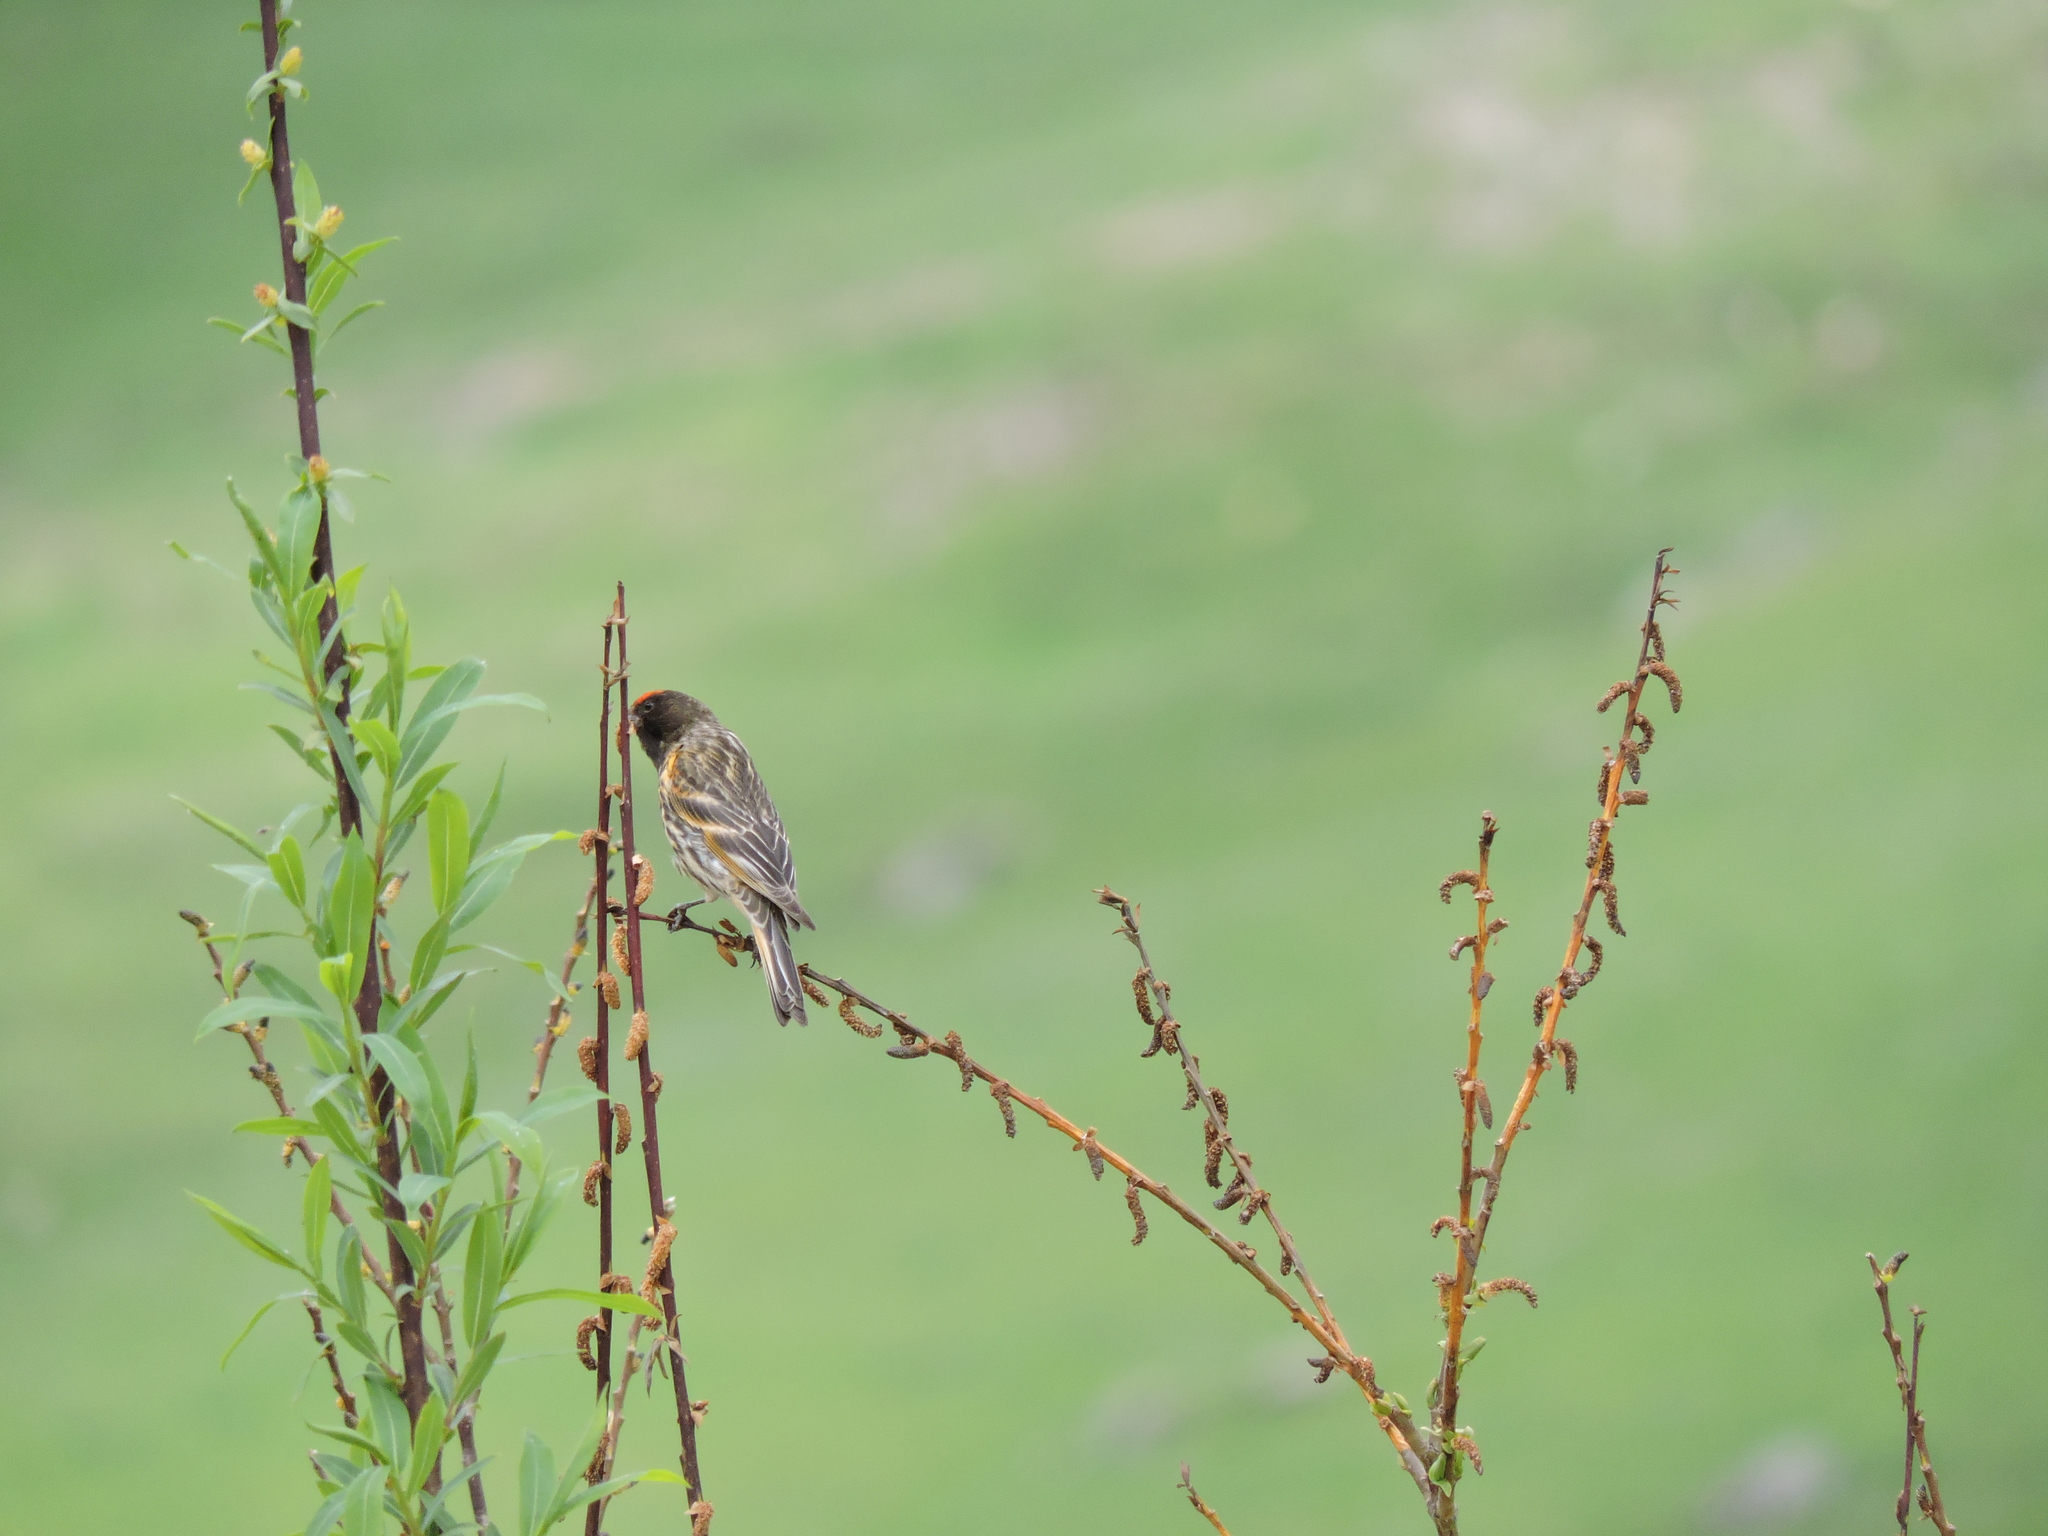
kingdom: Animalia
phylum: Chordata
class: Aves
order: Passeriformes
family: Fringillidae
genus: Serinus
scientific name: Serinus pusillus
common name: Red-fronted serin
